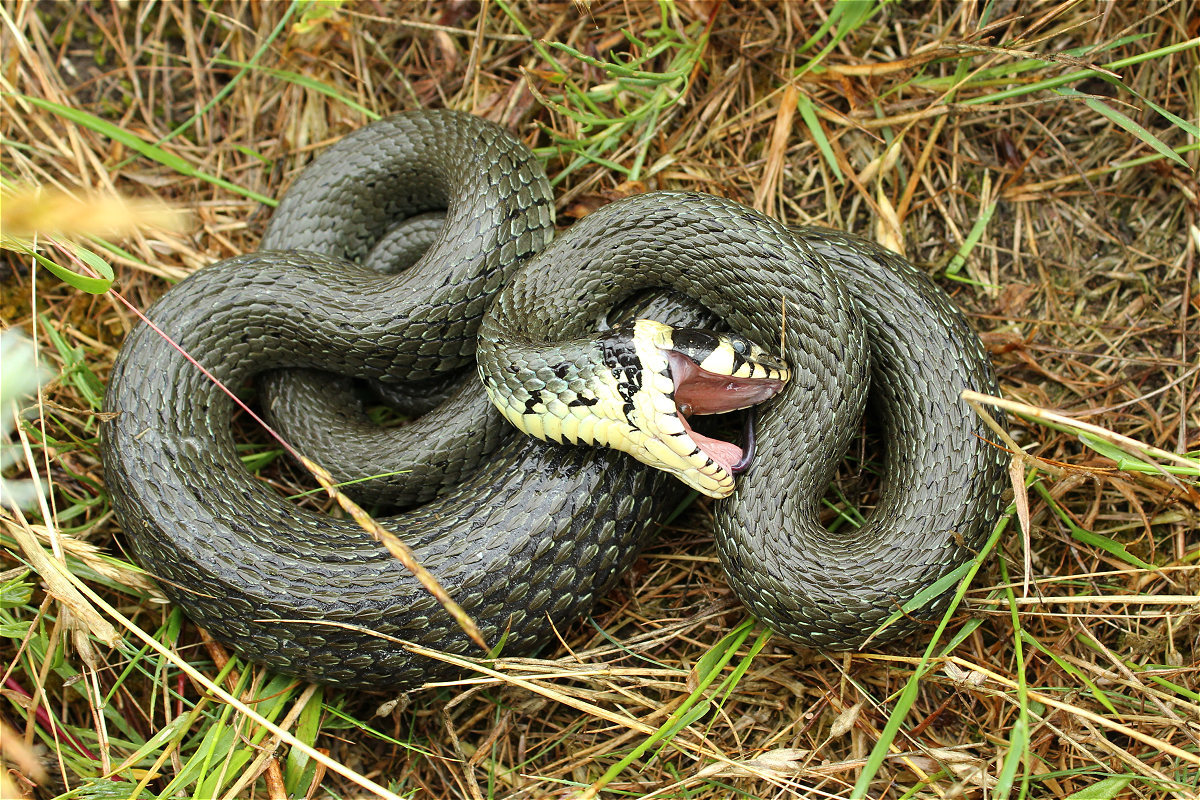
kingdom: Animalia
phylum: Chordata
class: Squamata
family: Colubridae
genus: Natrix
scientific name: Natrix natrix
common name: Grass snake
